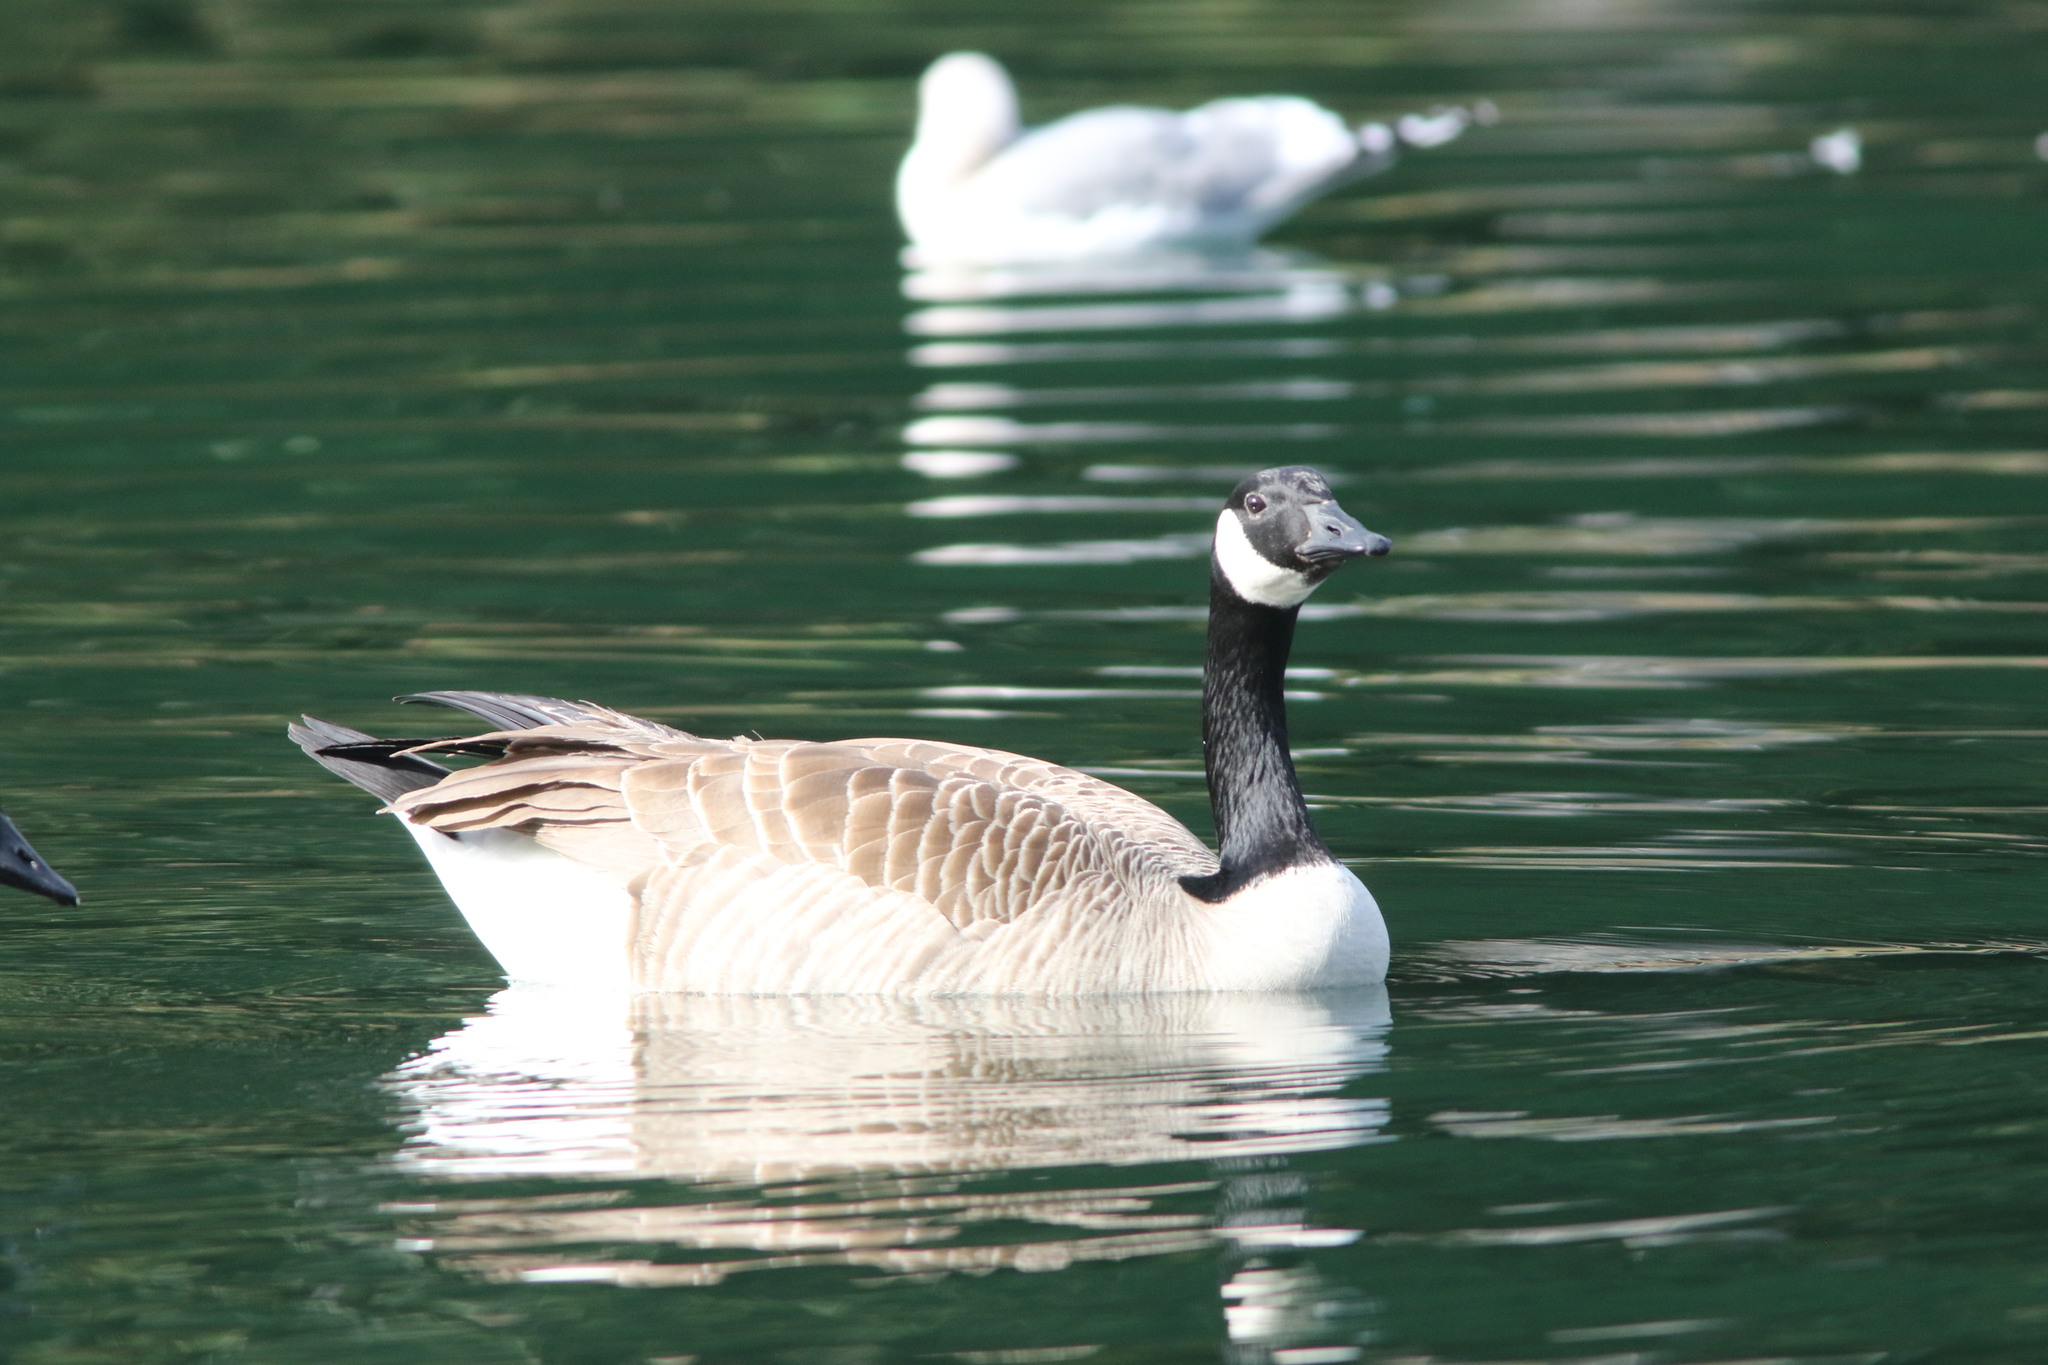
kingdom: Animalia
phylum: Chordata
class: Aves
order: Anseriformes
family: Anatidae
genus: Branta
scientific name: Branta canadensis
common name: Canada goose
